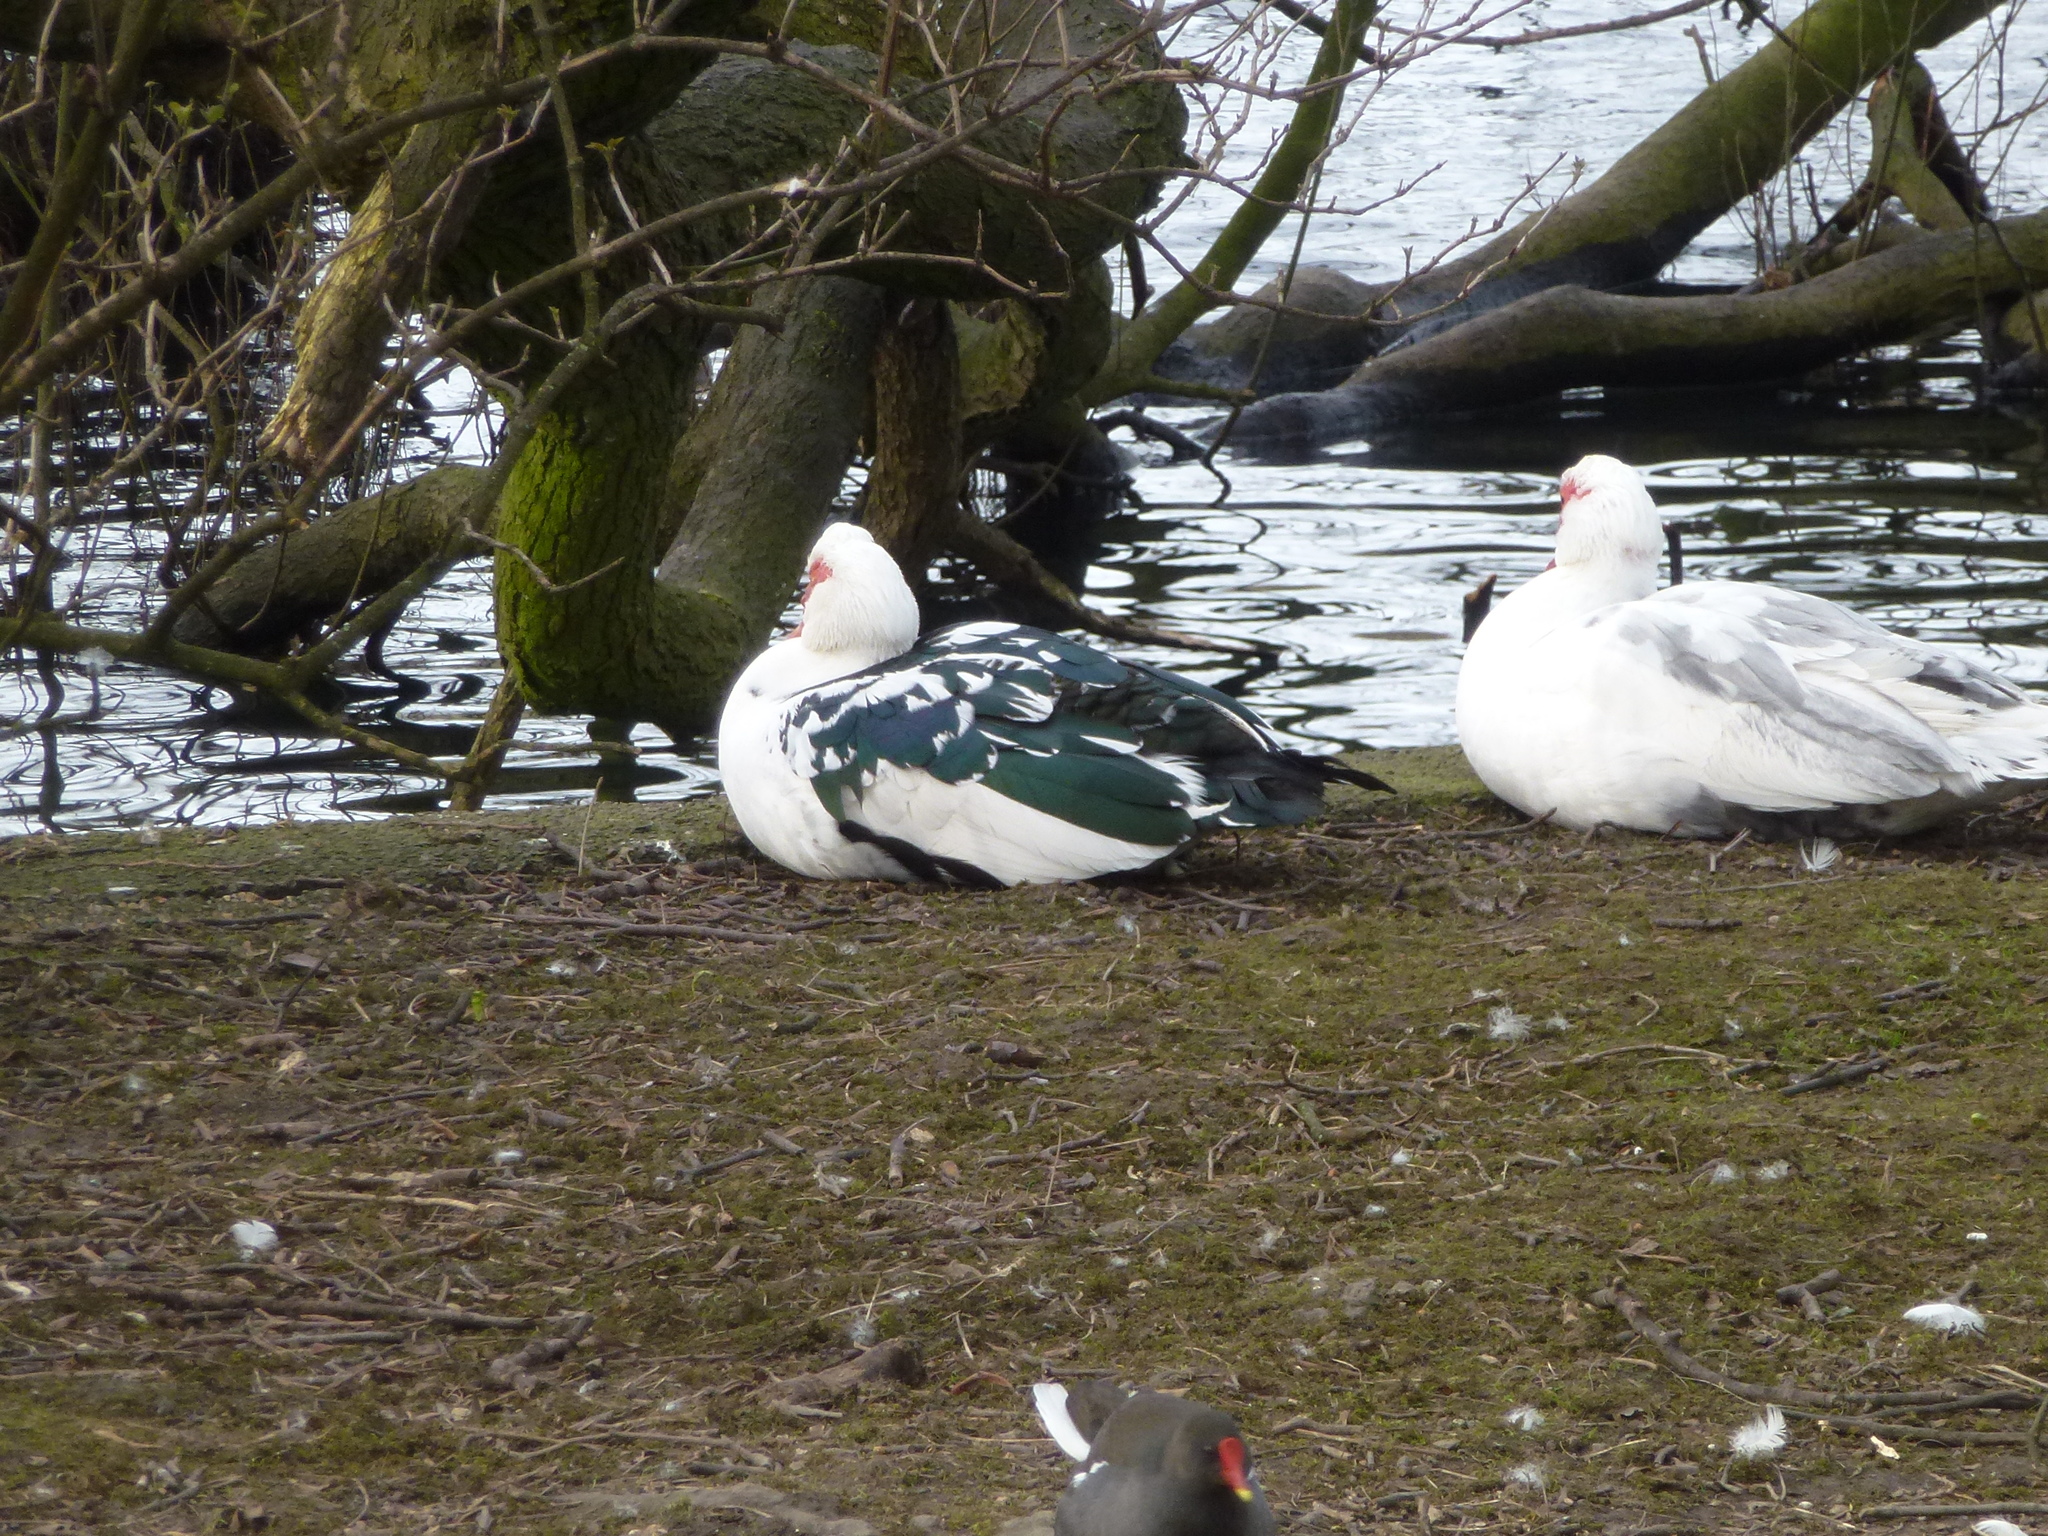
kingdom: Animalia
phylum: Chordata
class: Aves
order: Anseriformes
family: Anatidae
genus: Cairina
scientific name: Cairina moschata
